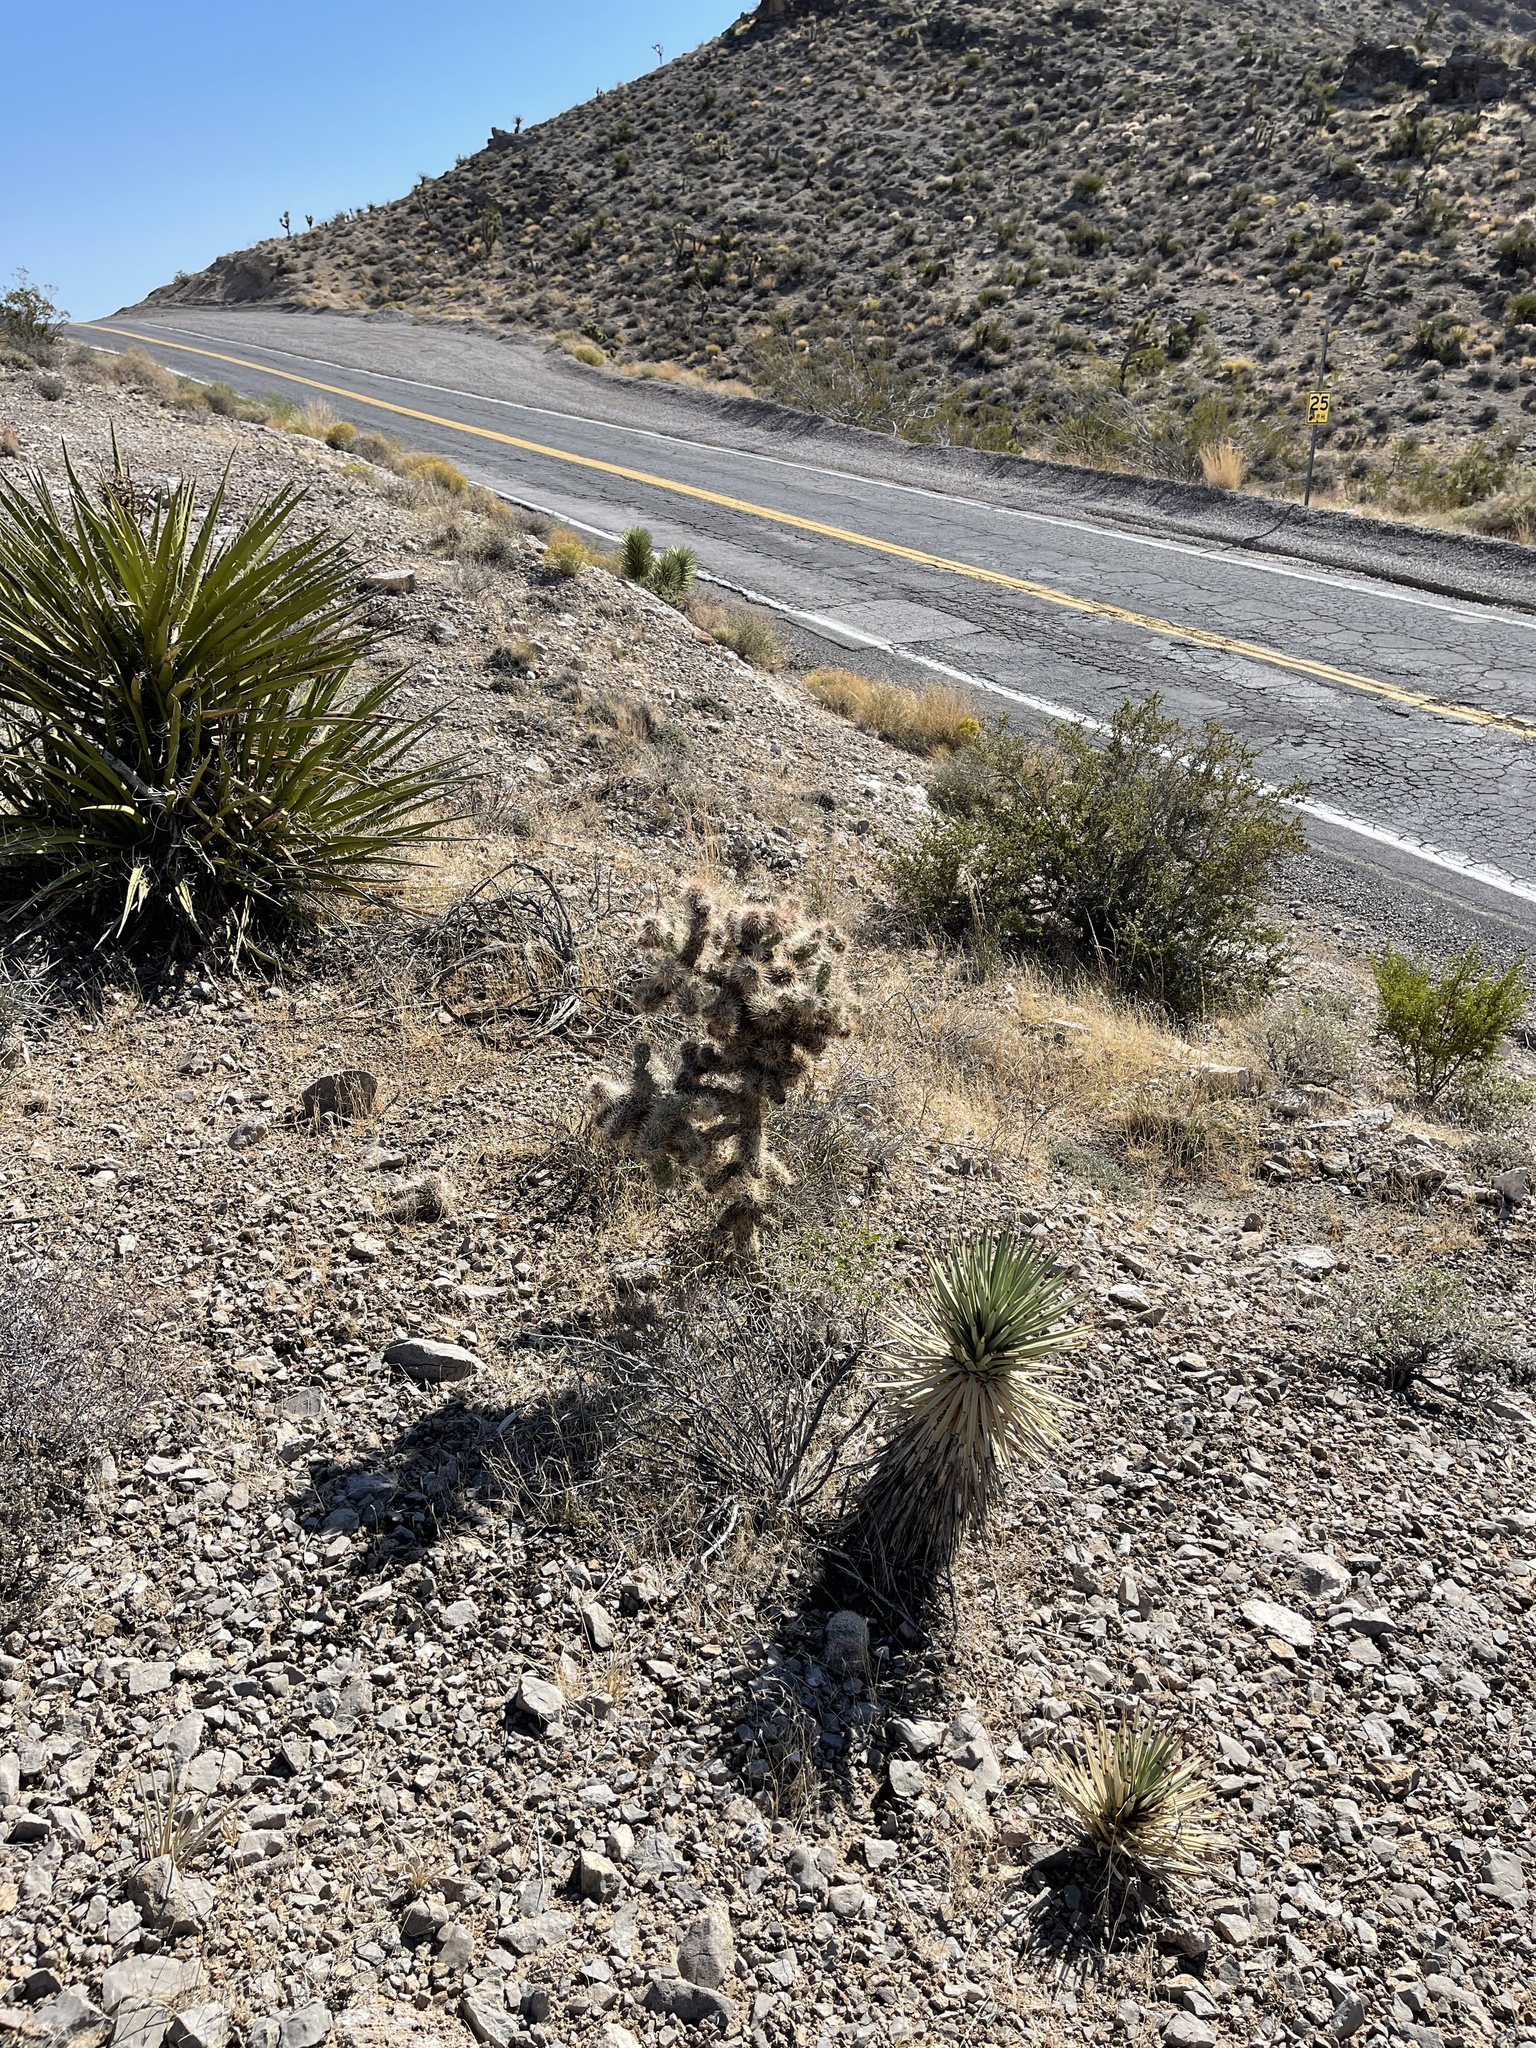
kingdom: Plantae
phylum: Tracheophyta
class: Magnoliopsida
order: Caryophyllales
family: Cactaceae
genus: Cylindropuntia
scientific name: Cylindropuntia echinocarpa
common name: Ground cholla
